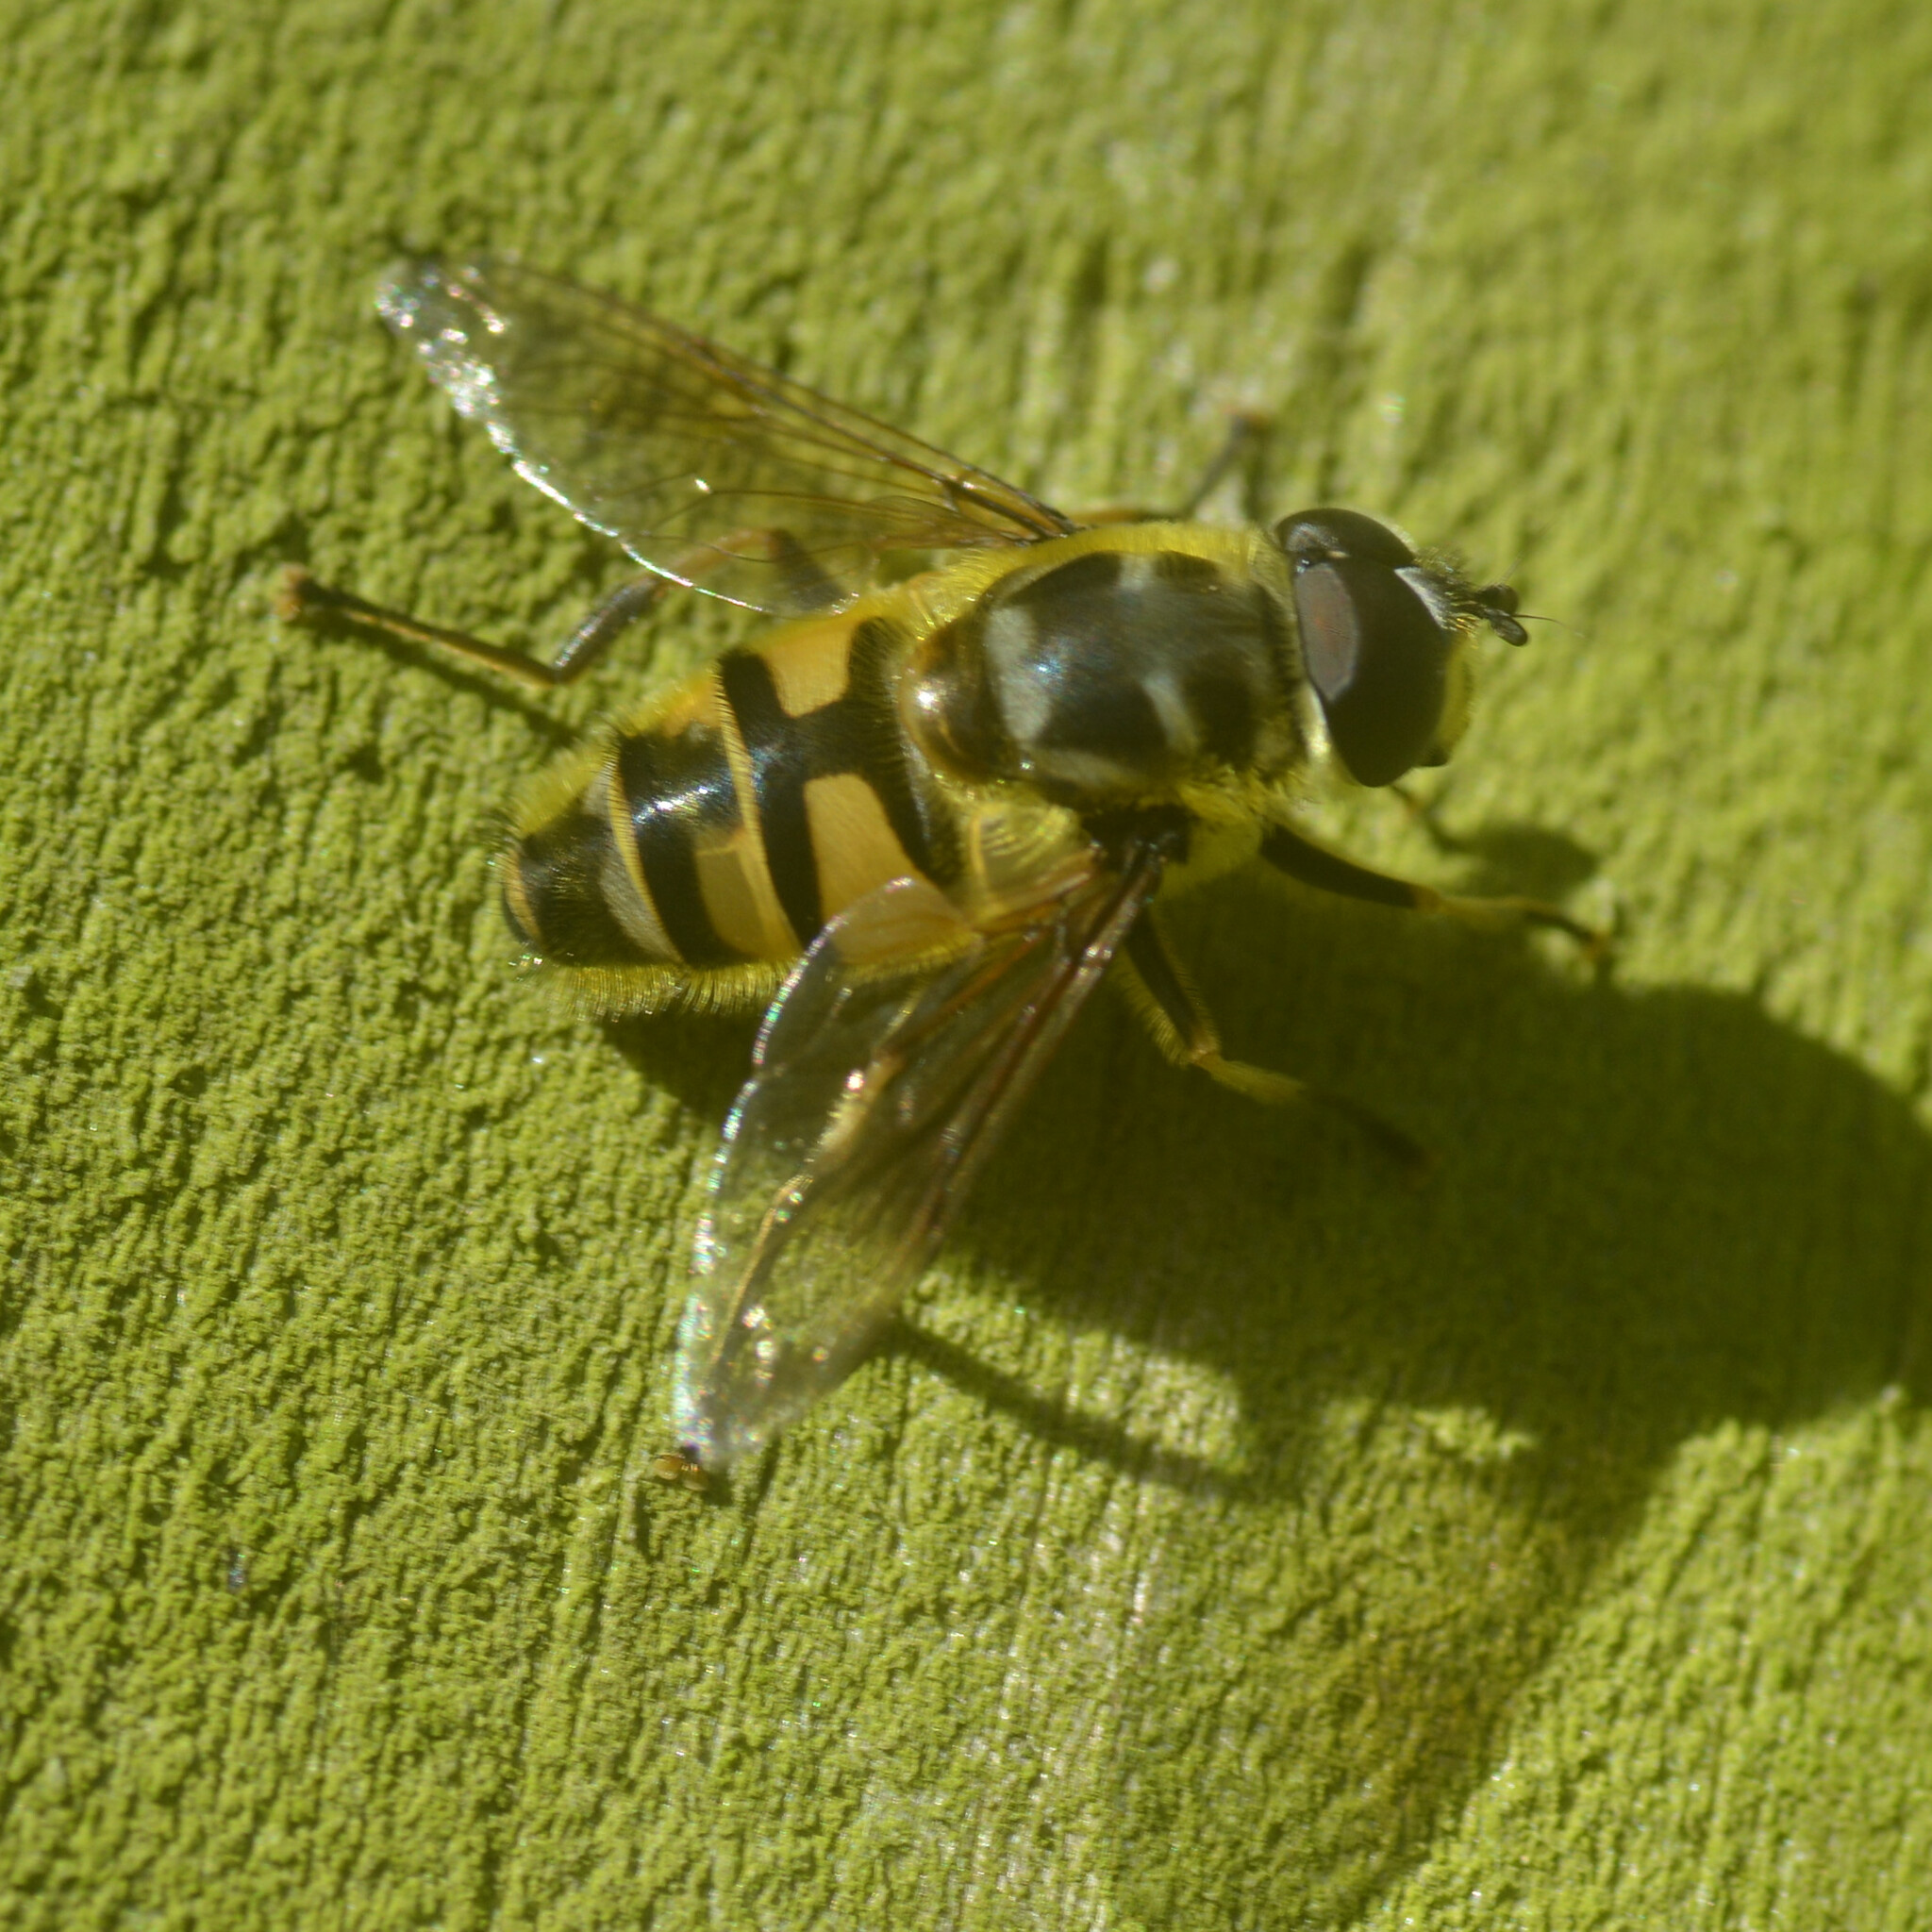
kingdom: Animalia
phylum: Arthropoda
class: Insecta
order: Diptera
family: Syrphidae
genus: Myathropa
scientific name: Myathropa florea
